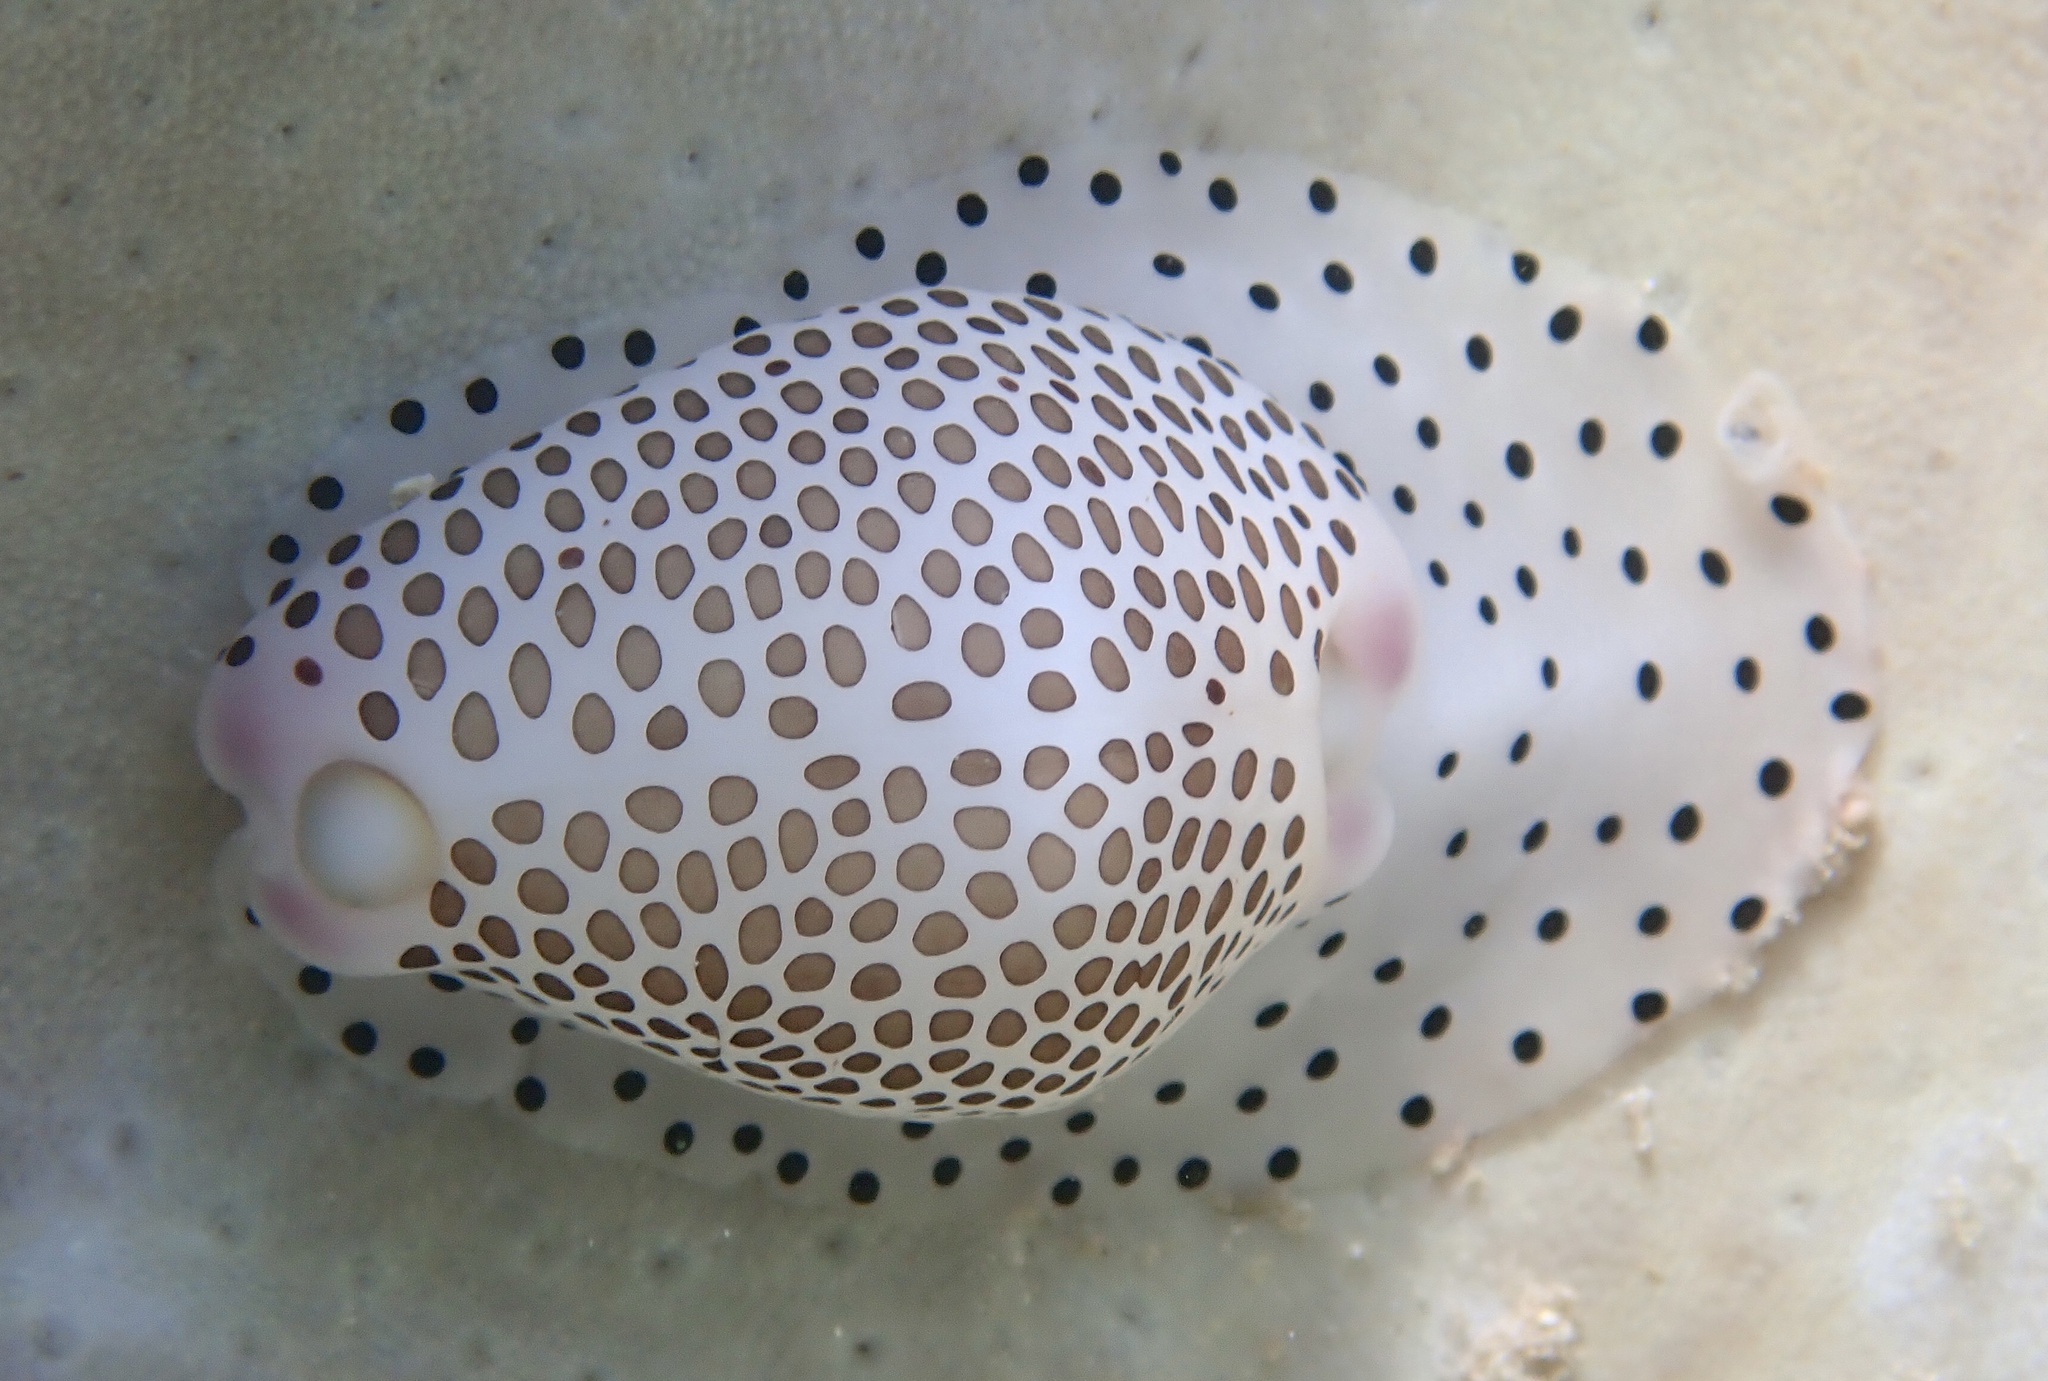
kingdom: Animalia
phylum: Mollusca
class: Gastropoda
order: Littorinimorpha
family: Ovulidae
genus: Calpurnus
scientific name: Calpurnus verrucosus
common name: Common calpurnus
